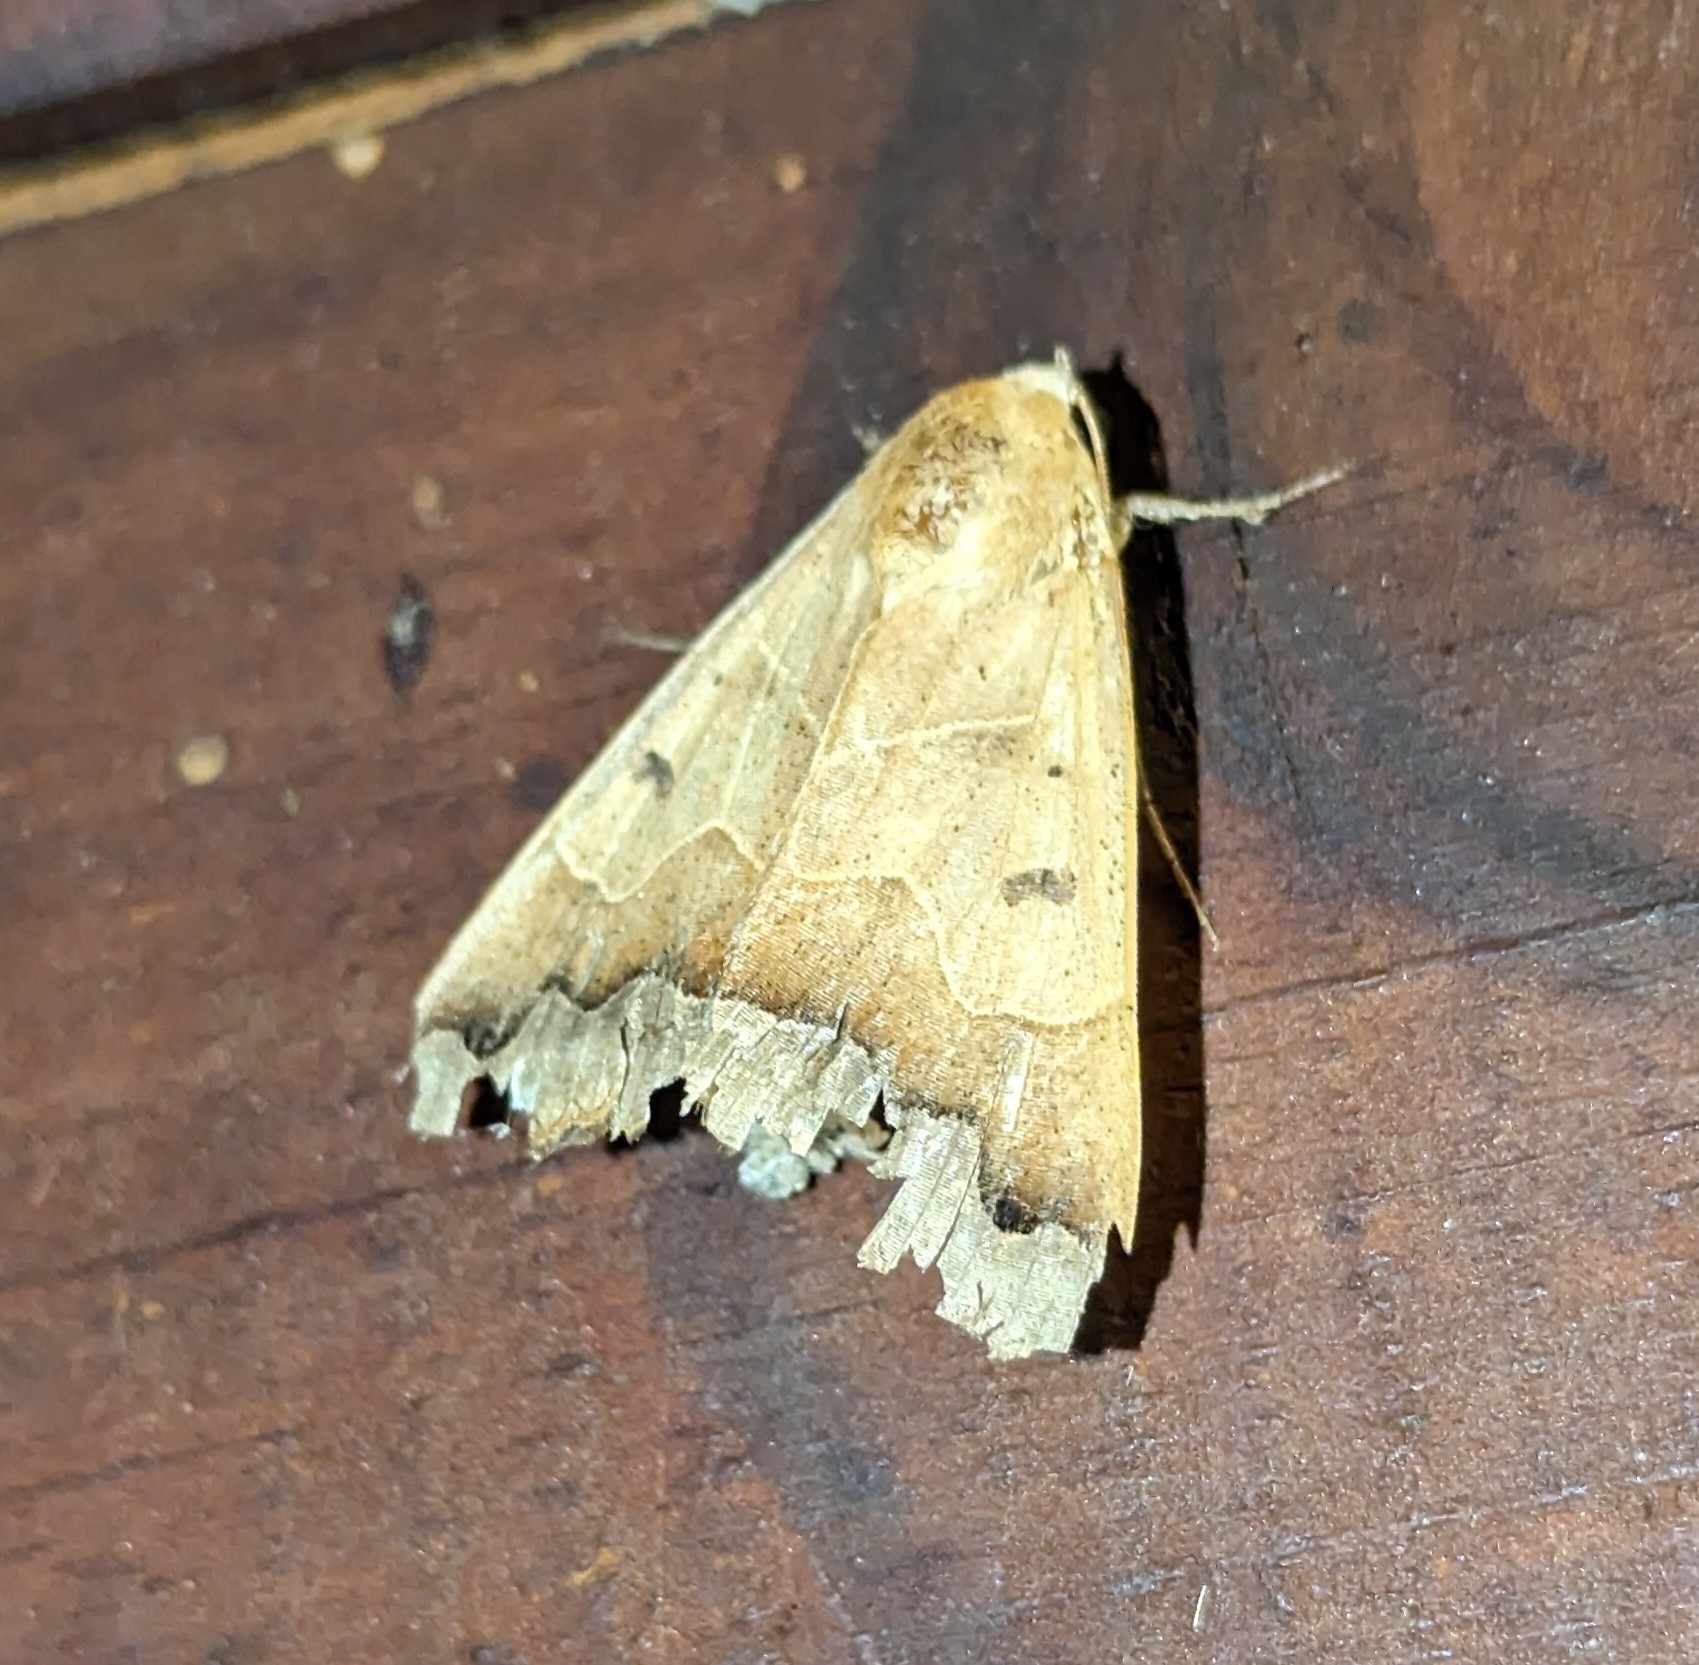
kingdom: Animalia
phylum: Arthropoda
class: Insecta
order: Lepidoptera
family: Erebidae
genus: Ophiusa
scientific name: Ophiusa mejanesi
